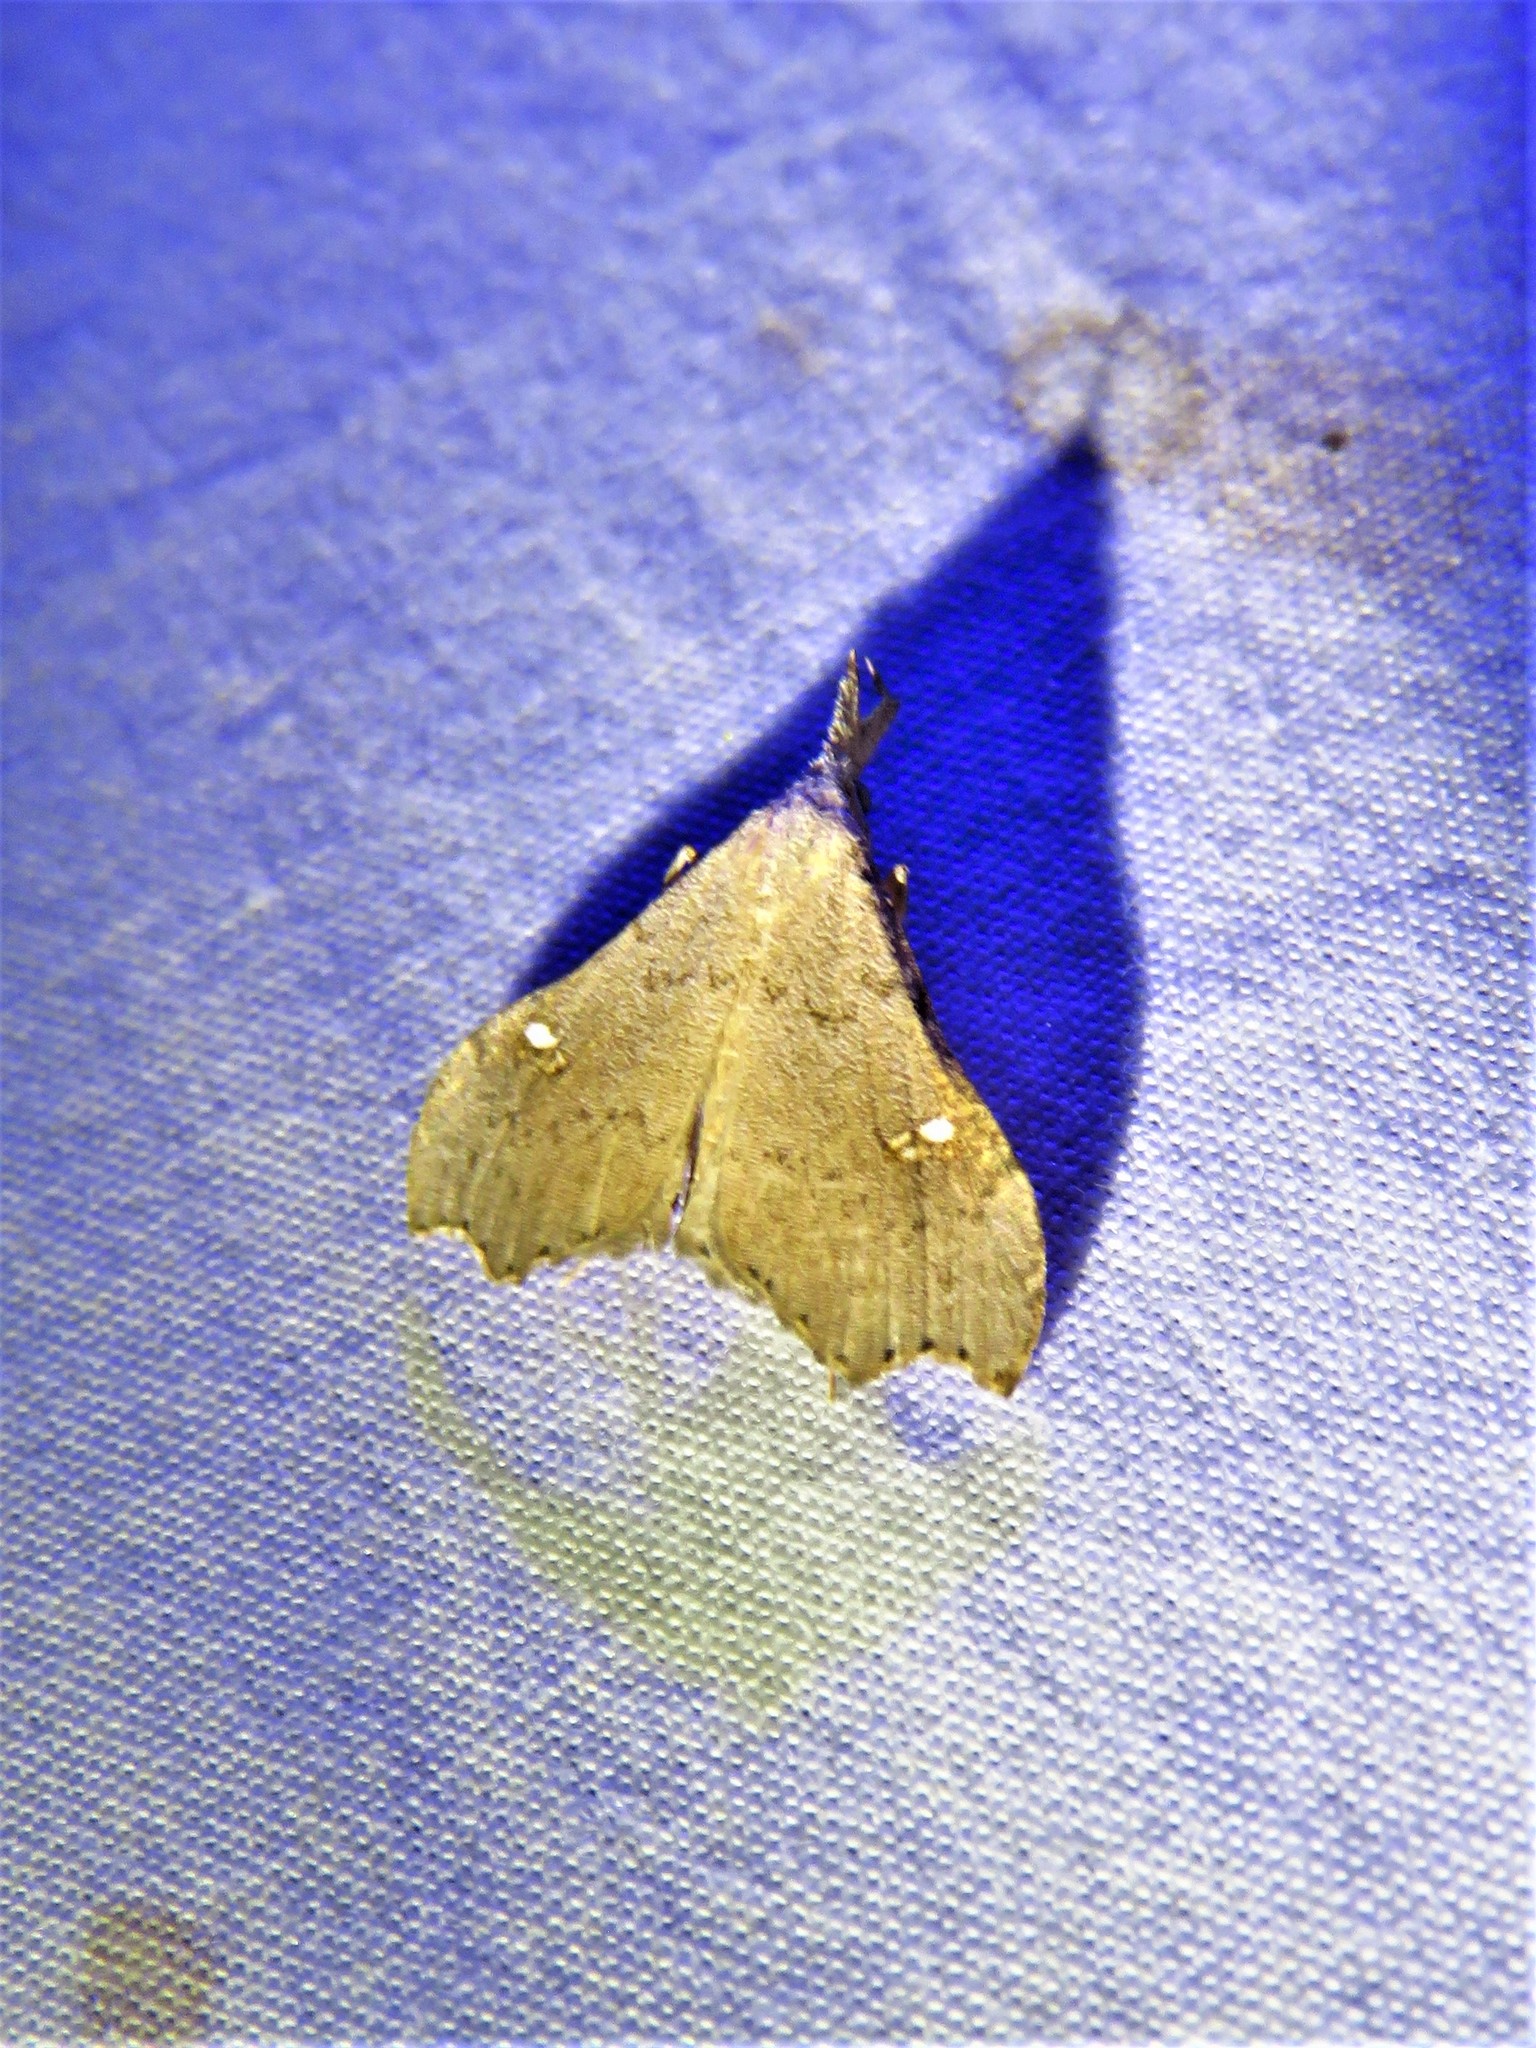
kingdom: Animalia
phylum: Arthropoda
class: Insecta
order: Lepidoptera
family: Erebidae
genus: Redectis
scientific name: Redectis vitrea
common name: White-spotted redectis
